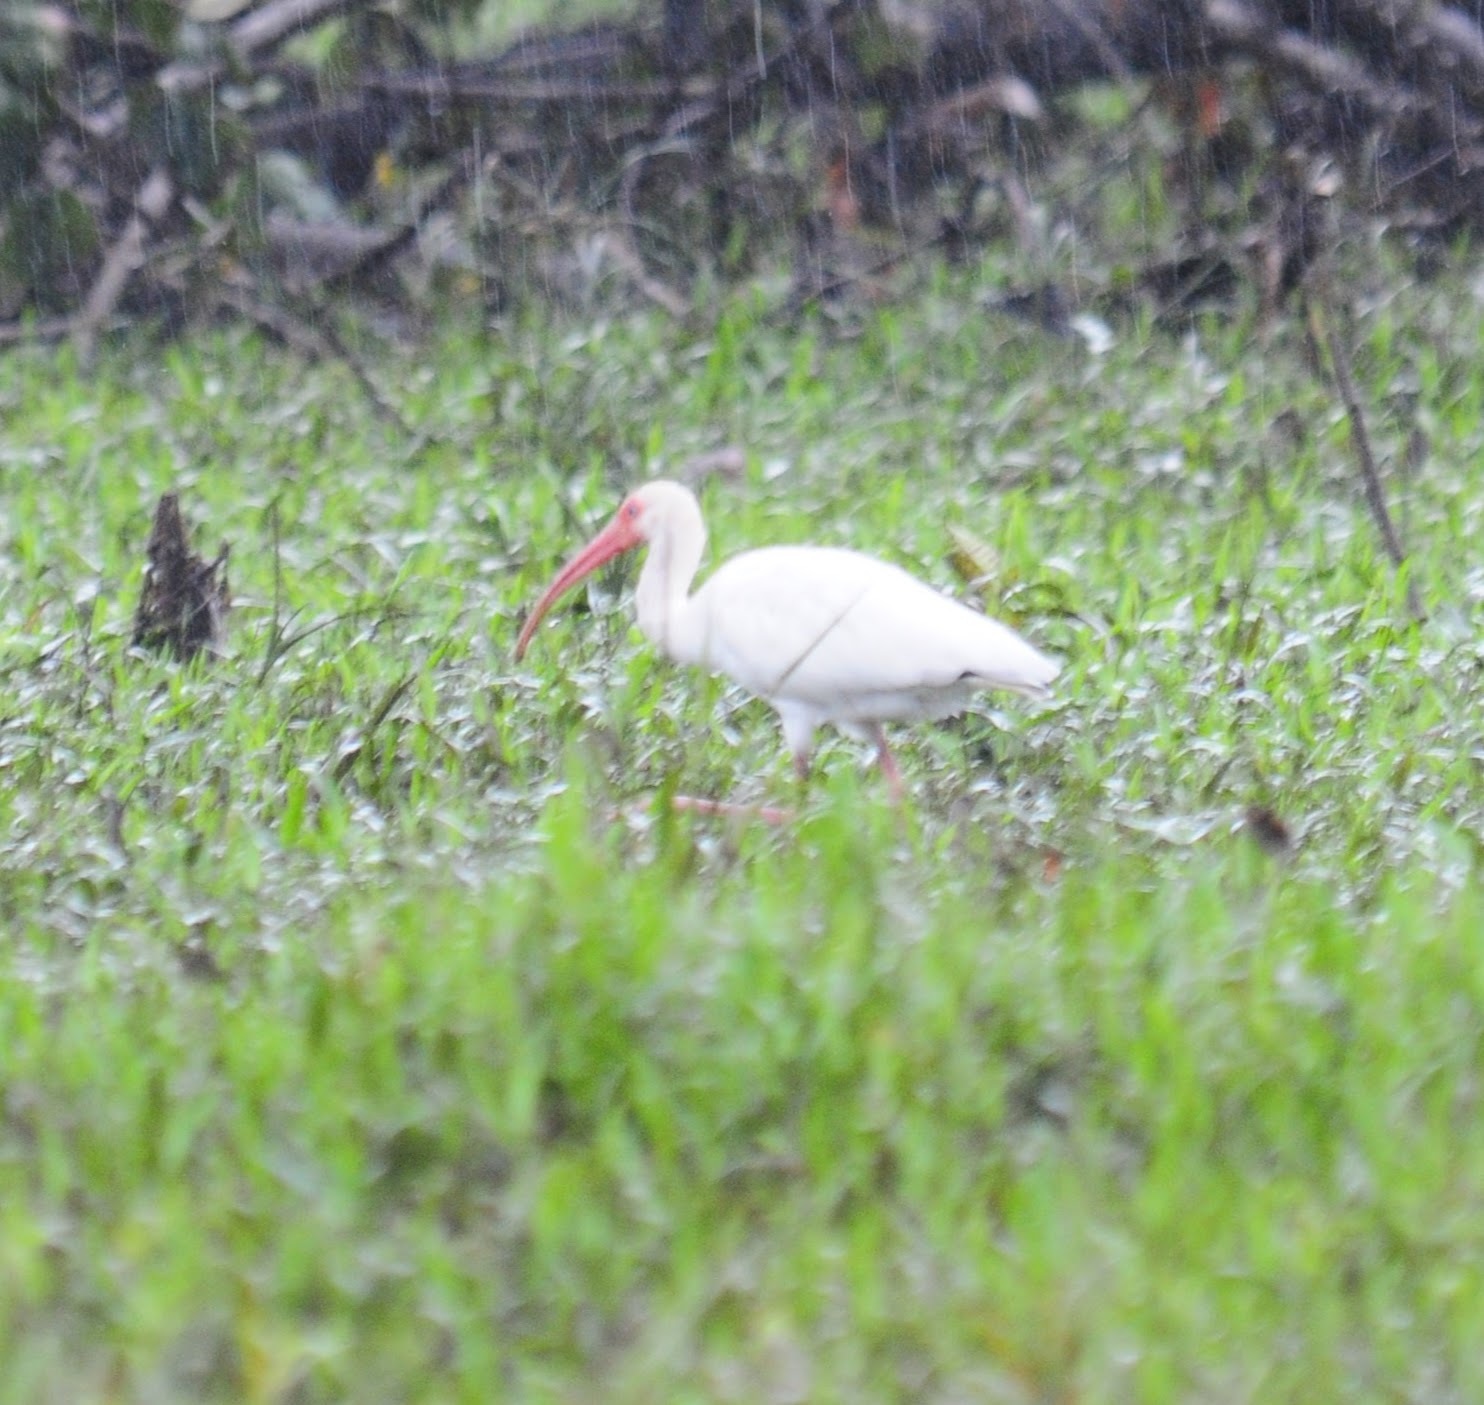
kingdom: Animalia
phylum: Chordata
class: Aves
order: Pelecaniformes
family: Threskiornithidae
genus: Eudocimus
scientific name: Eudocimus albus
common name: White ibis
